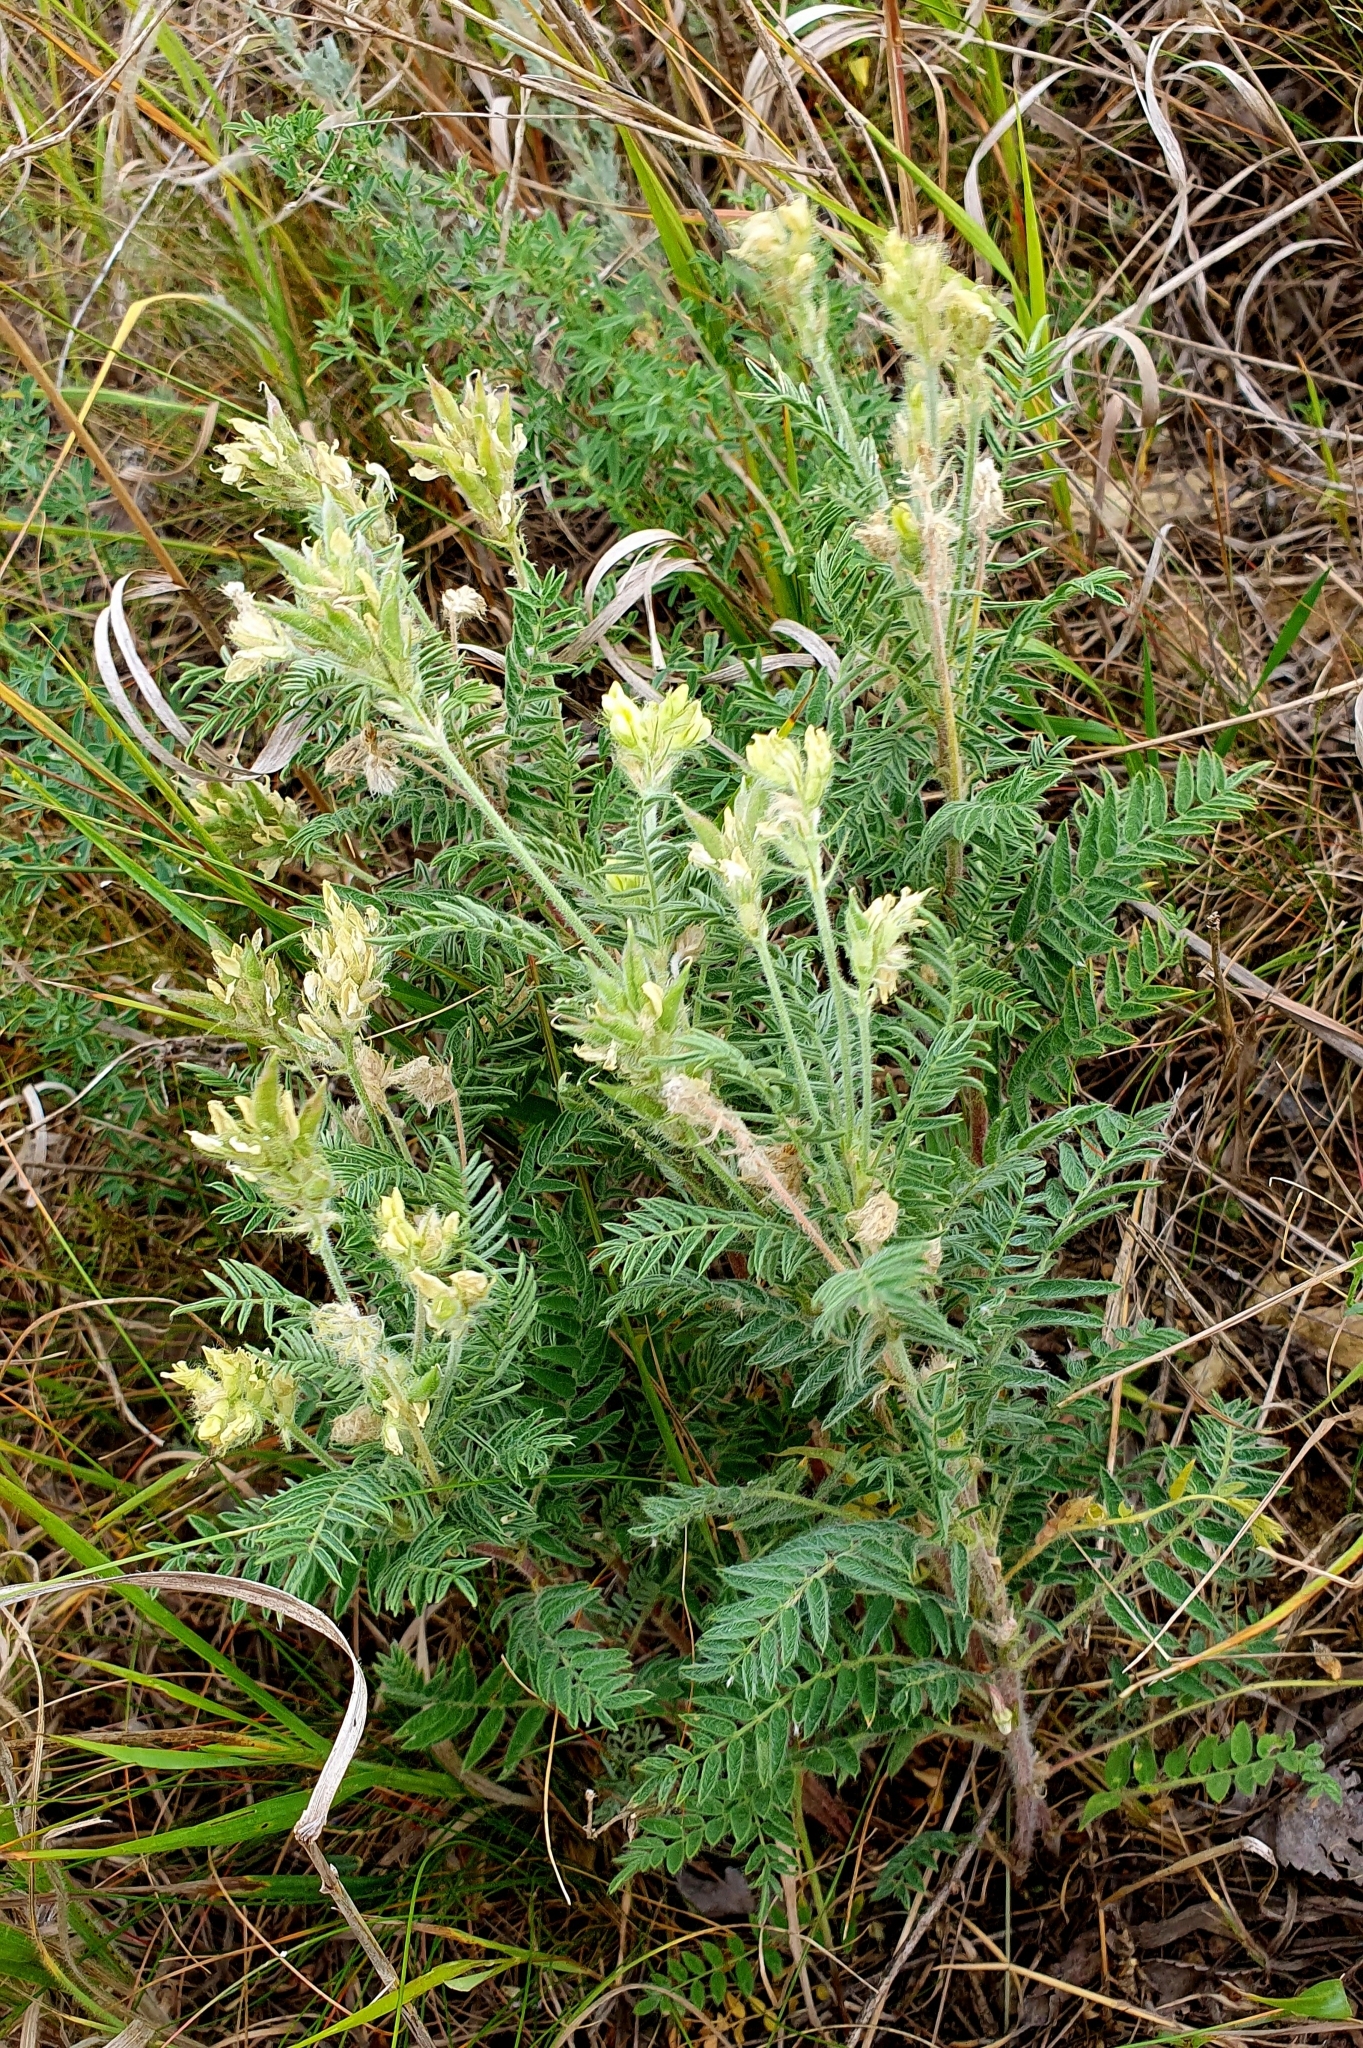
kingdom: Plantae
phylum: Tracheophyta
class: Magnoliopsida
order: Fabales
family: Fabaceae
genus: Oxytropis
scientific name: Oxytropis pilosa
